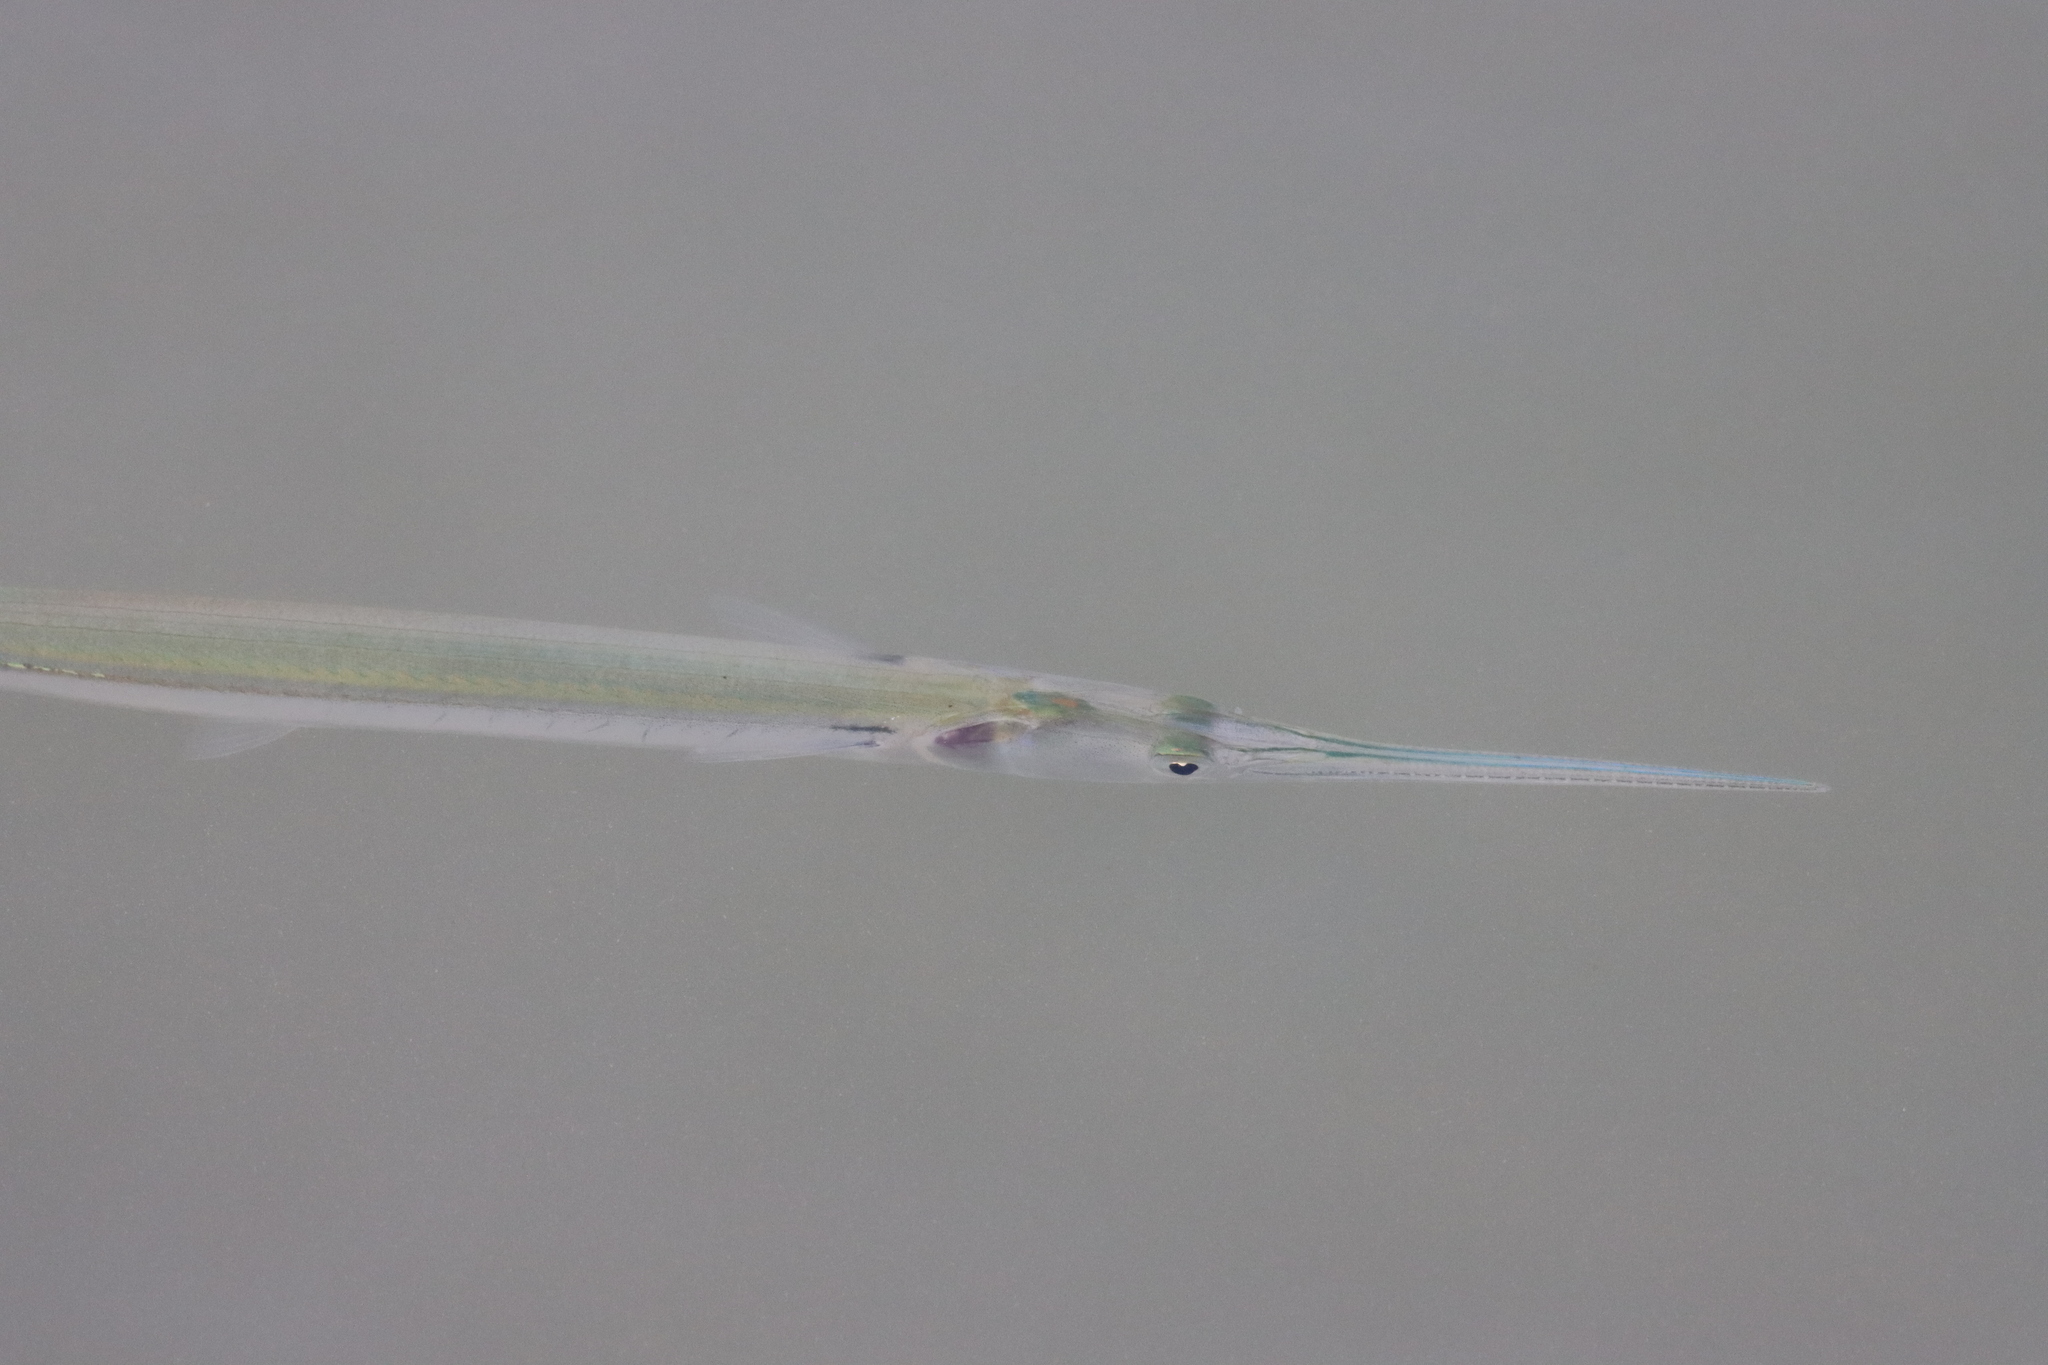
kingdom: Animalia
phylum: Chordata
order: Beloniformes
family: Belonidae
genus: Strongylura
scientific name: Strongylura strongylura
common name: Spottail needlefish
